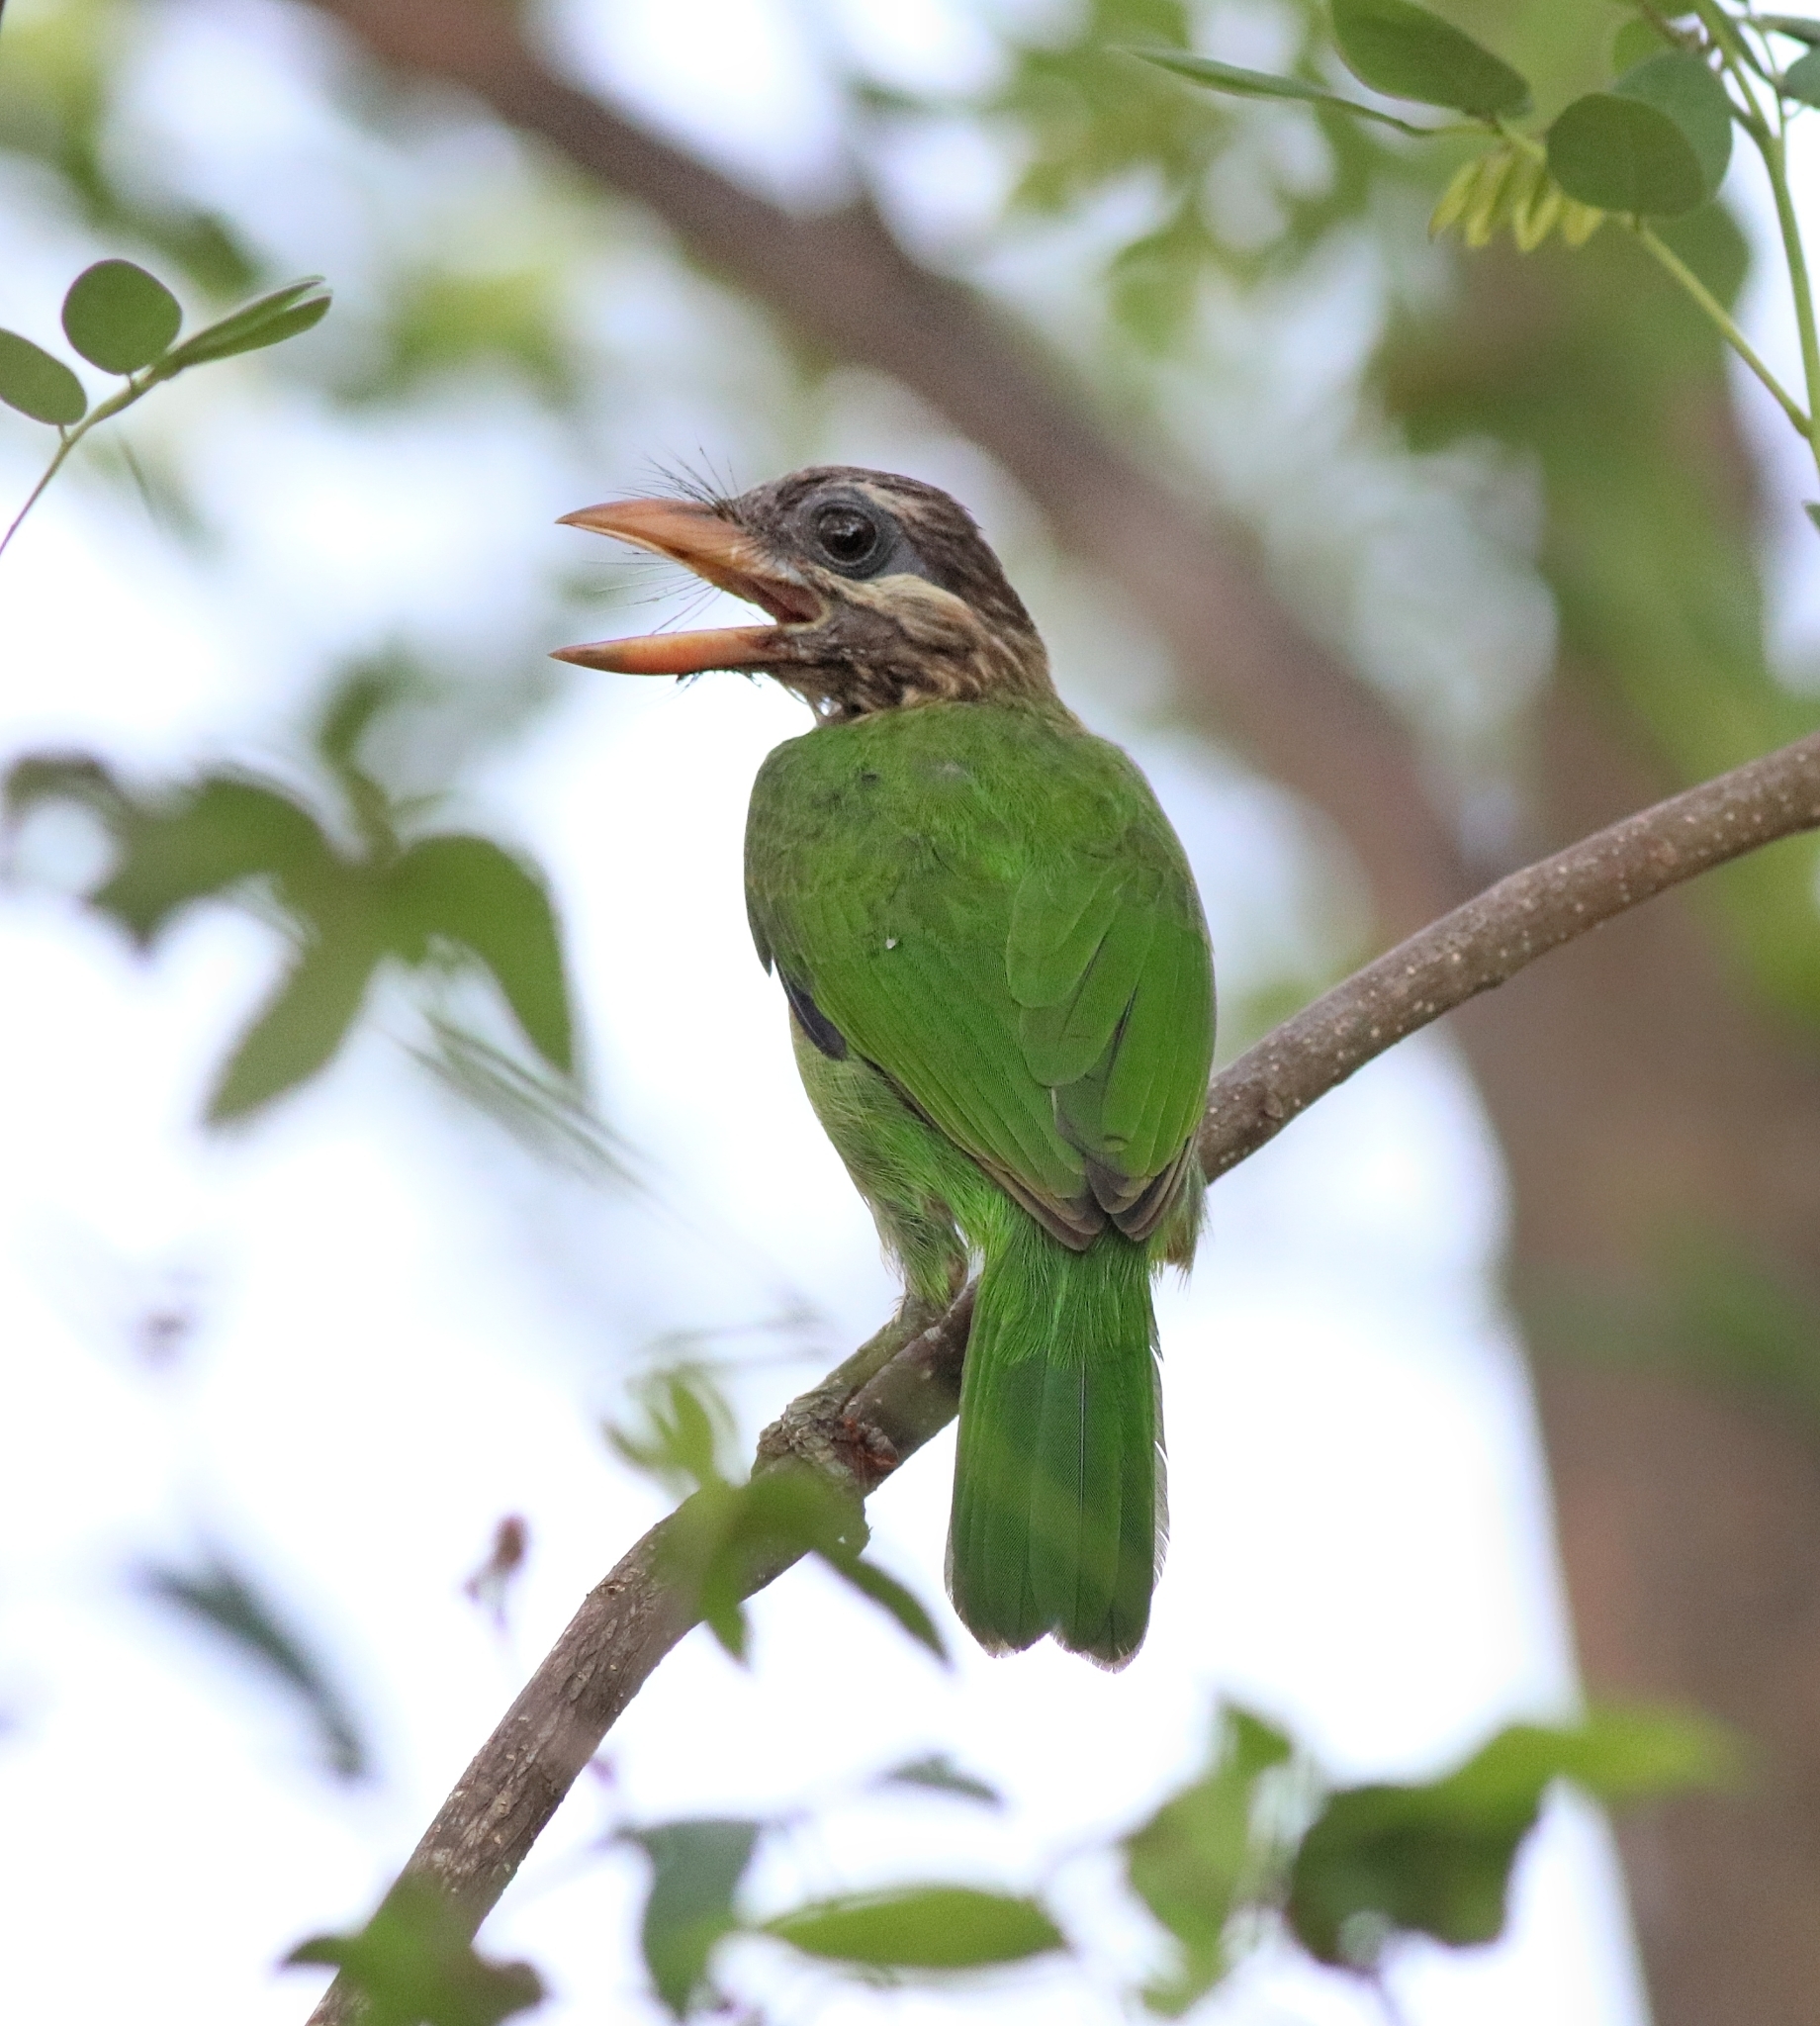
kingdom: Animalia
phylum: Chordata
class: Aves
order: Piciformes
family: Megalaimidae
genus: Psilopogon
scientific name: Psilopogon viridis
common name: White-cheeked barbet
